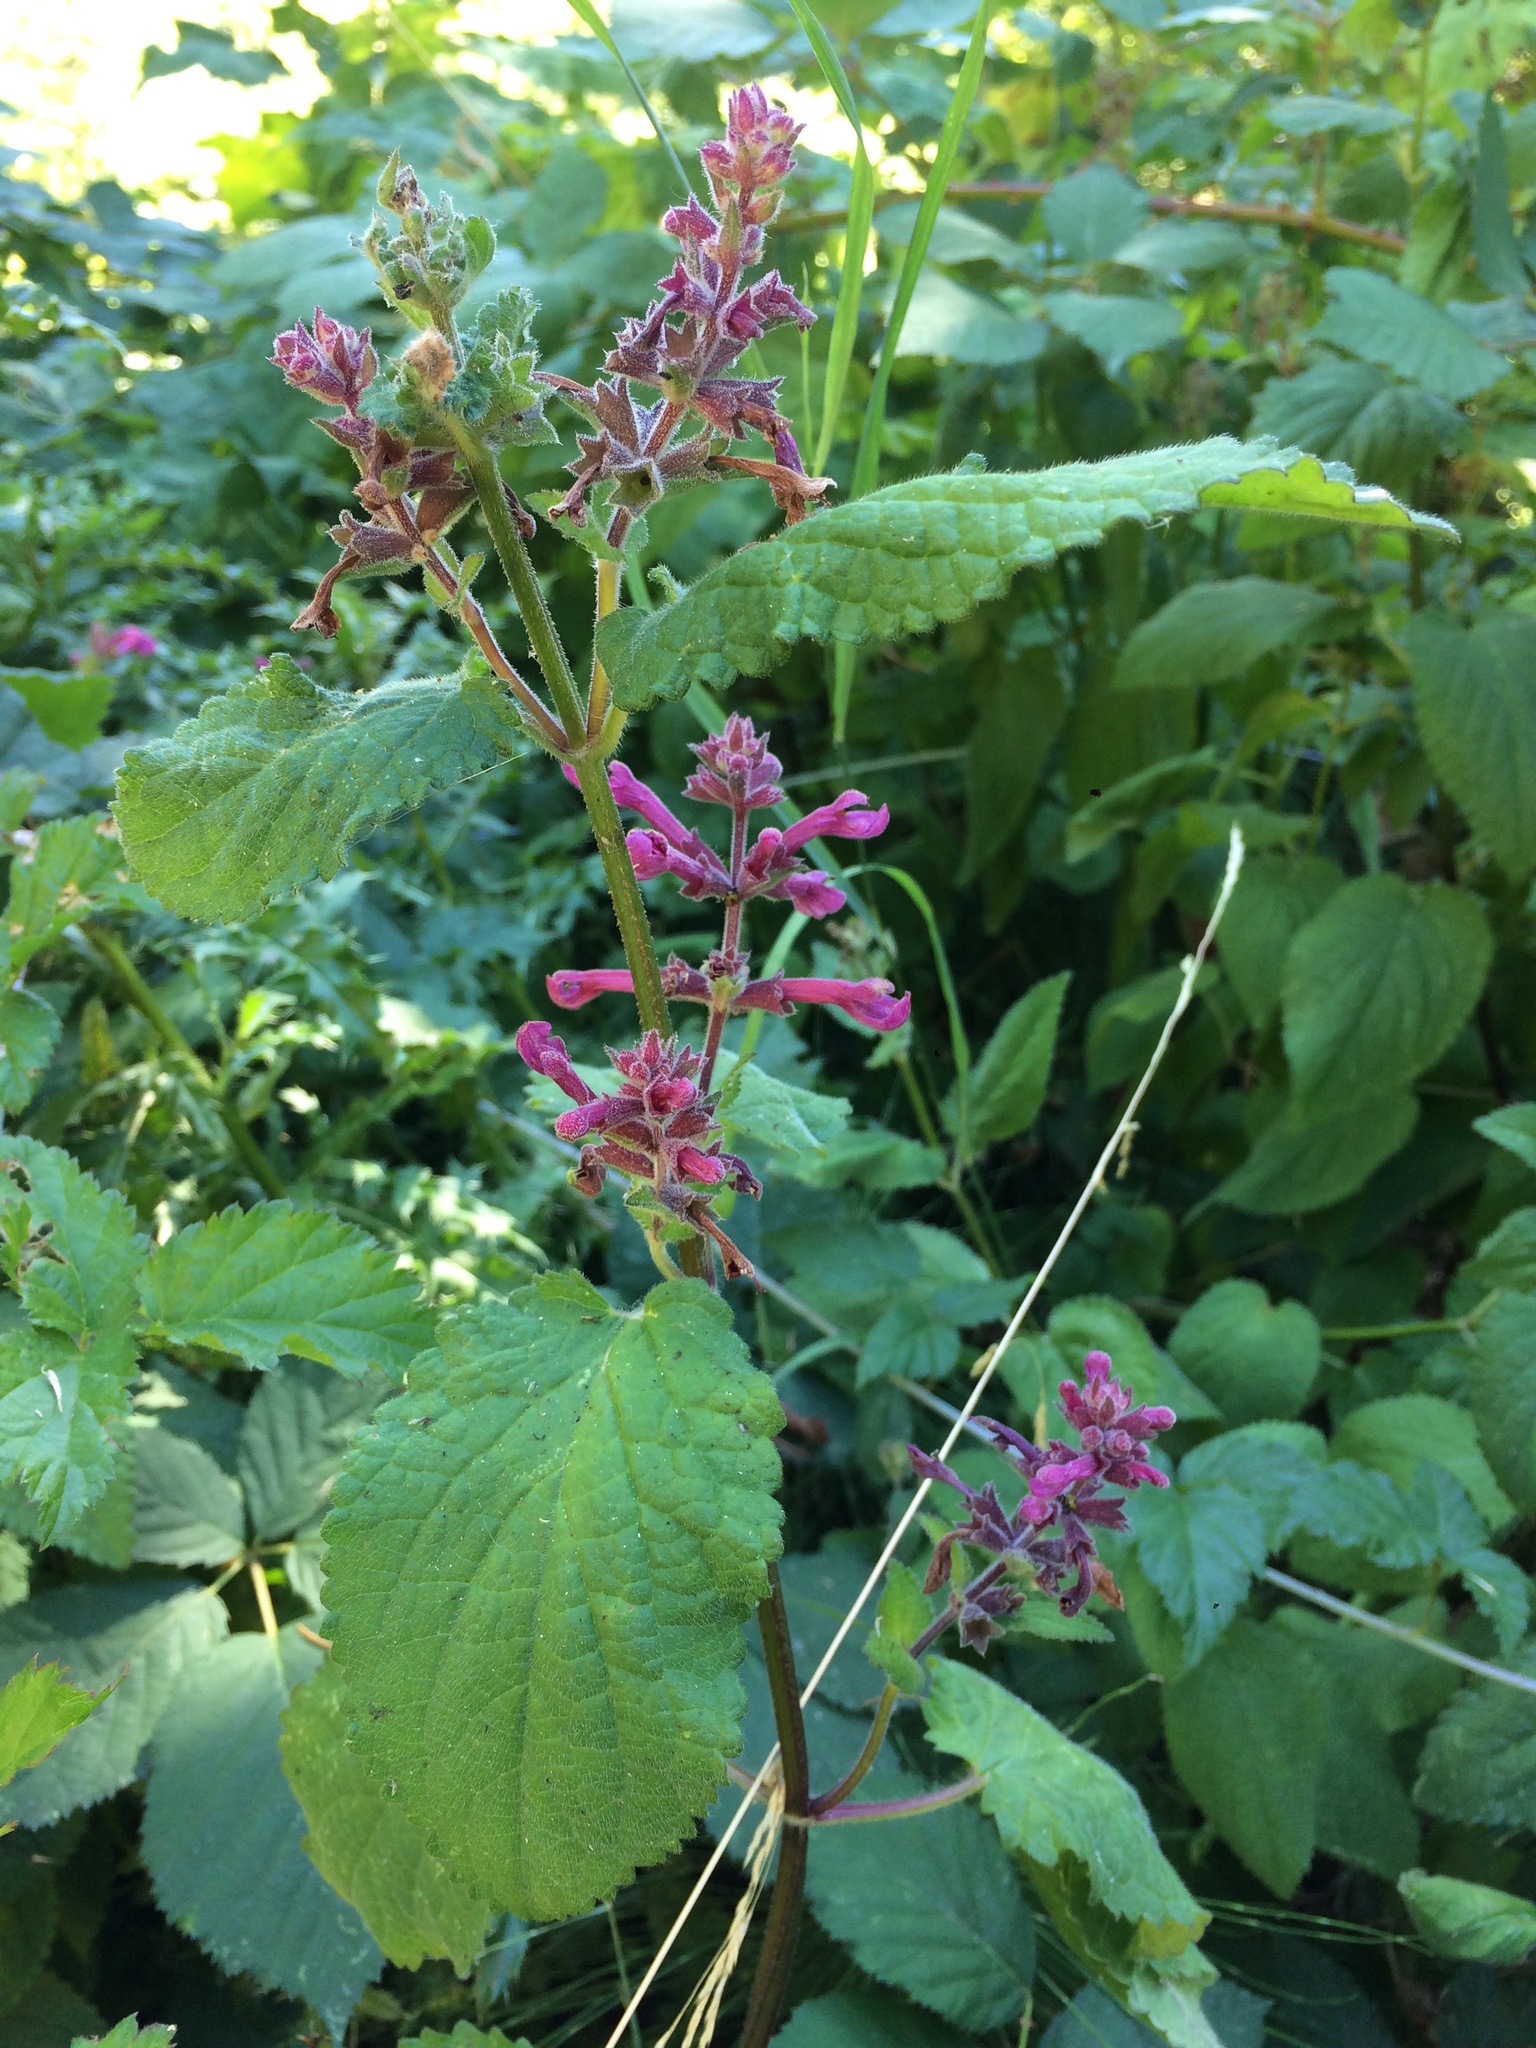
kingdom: Plantae
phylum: Tracheophyta
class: Magnoliopsida
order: Lamiales
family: Lamiaceae
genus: Stachys
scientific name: Stachys chamissonis
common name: Coastal hedge-nettle
